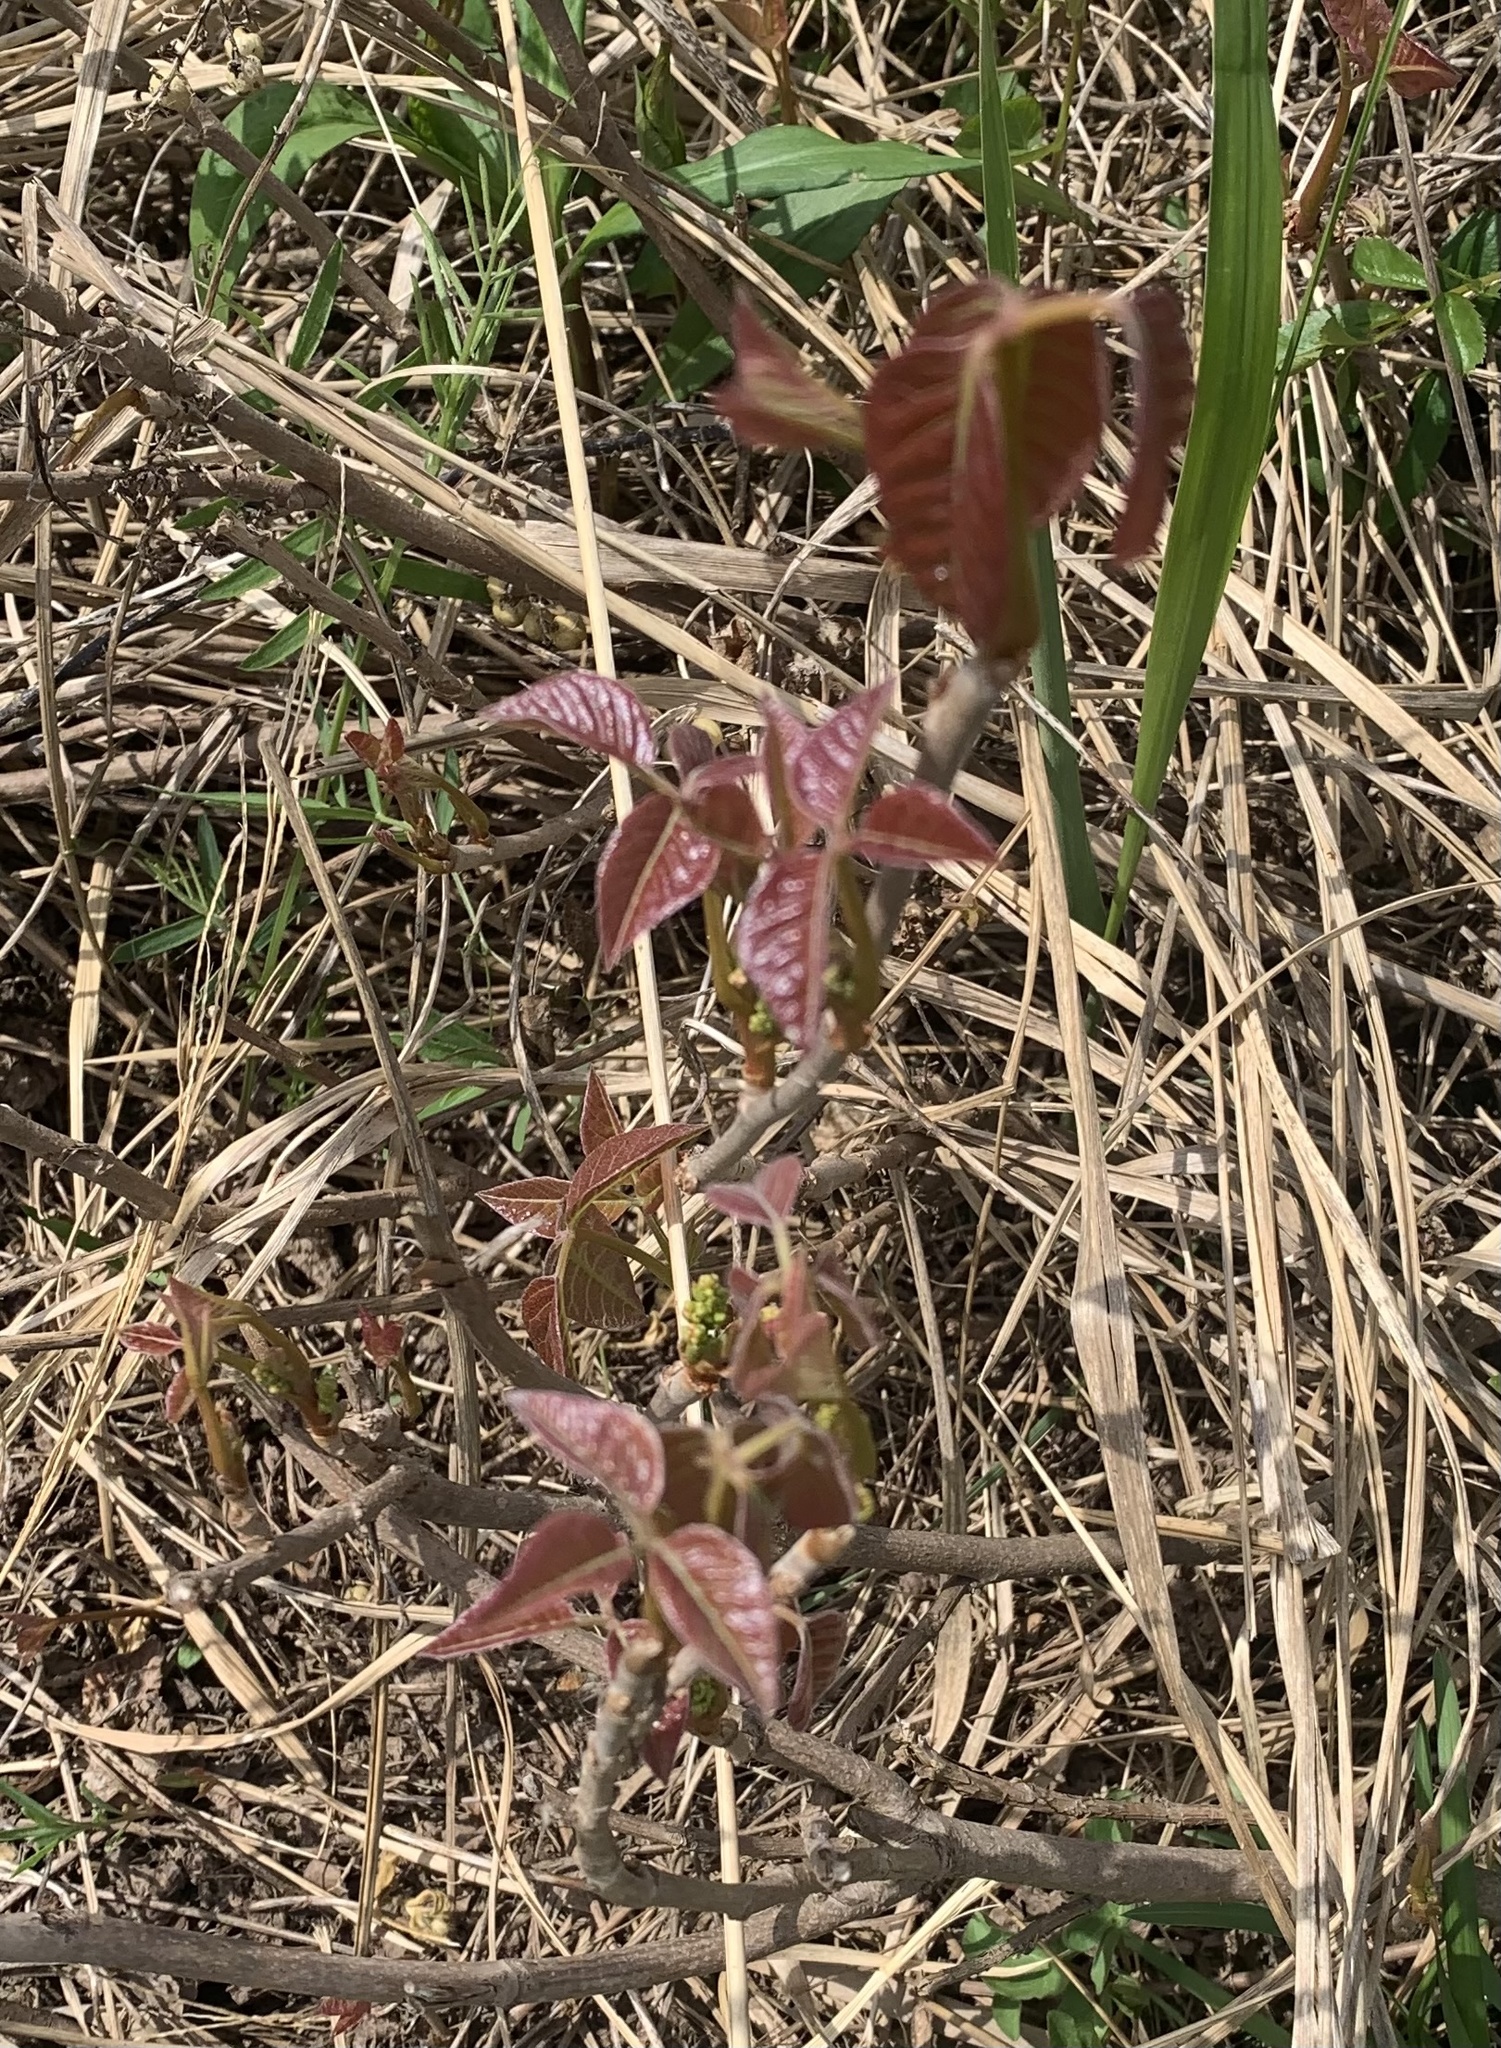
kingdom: Plantae
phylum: Tracheophyta
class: Magnoliopsida
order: Sapindales
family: Anacardiaceae
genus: Toxicodendron
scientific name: Toxicodendron radicans
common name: Poison ivy
